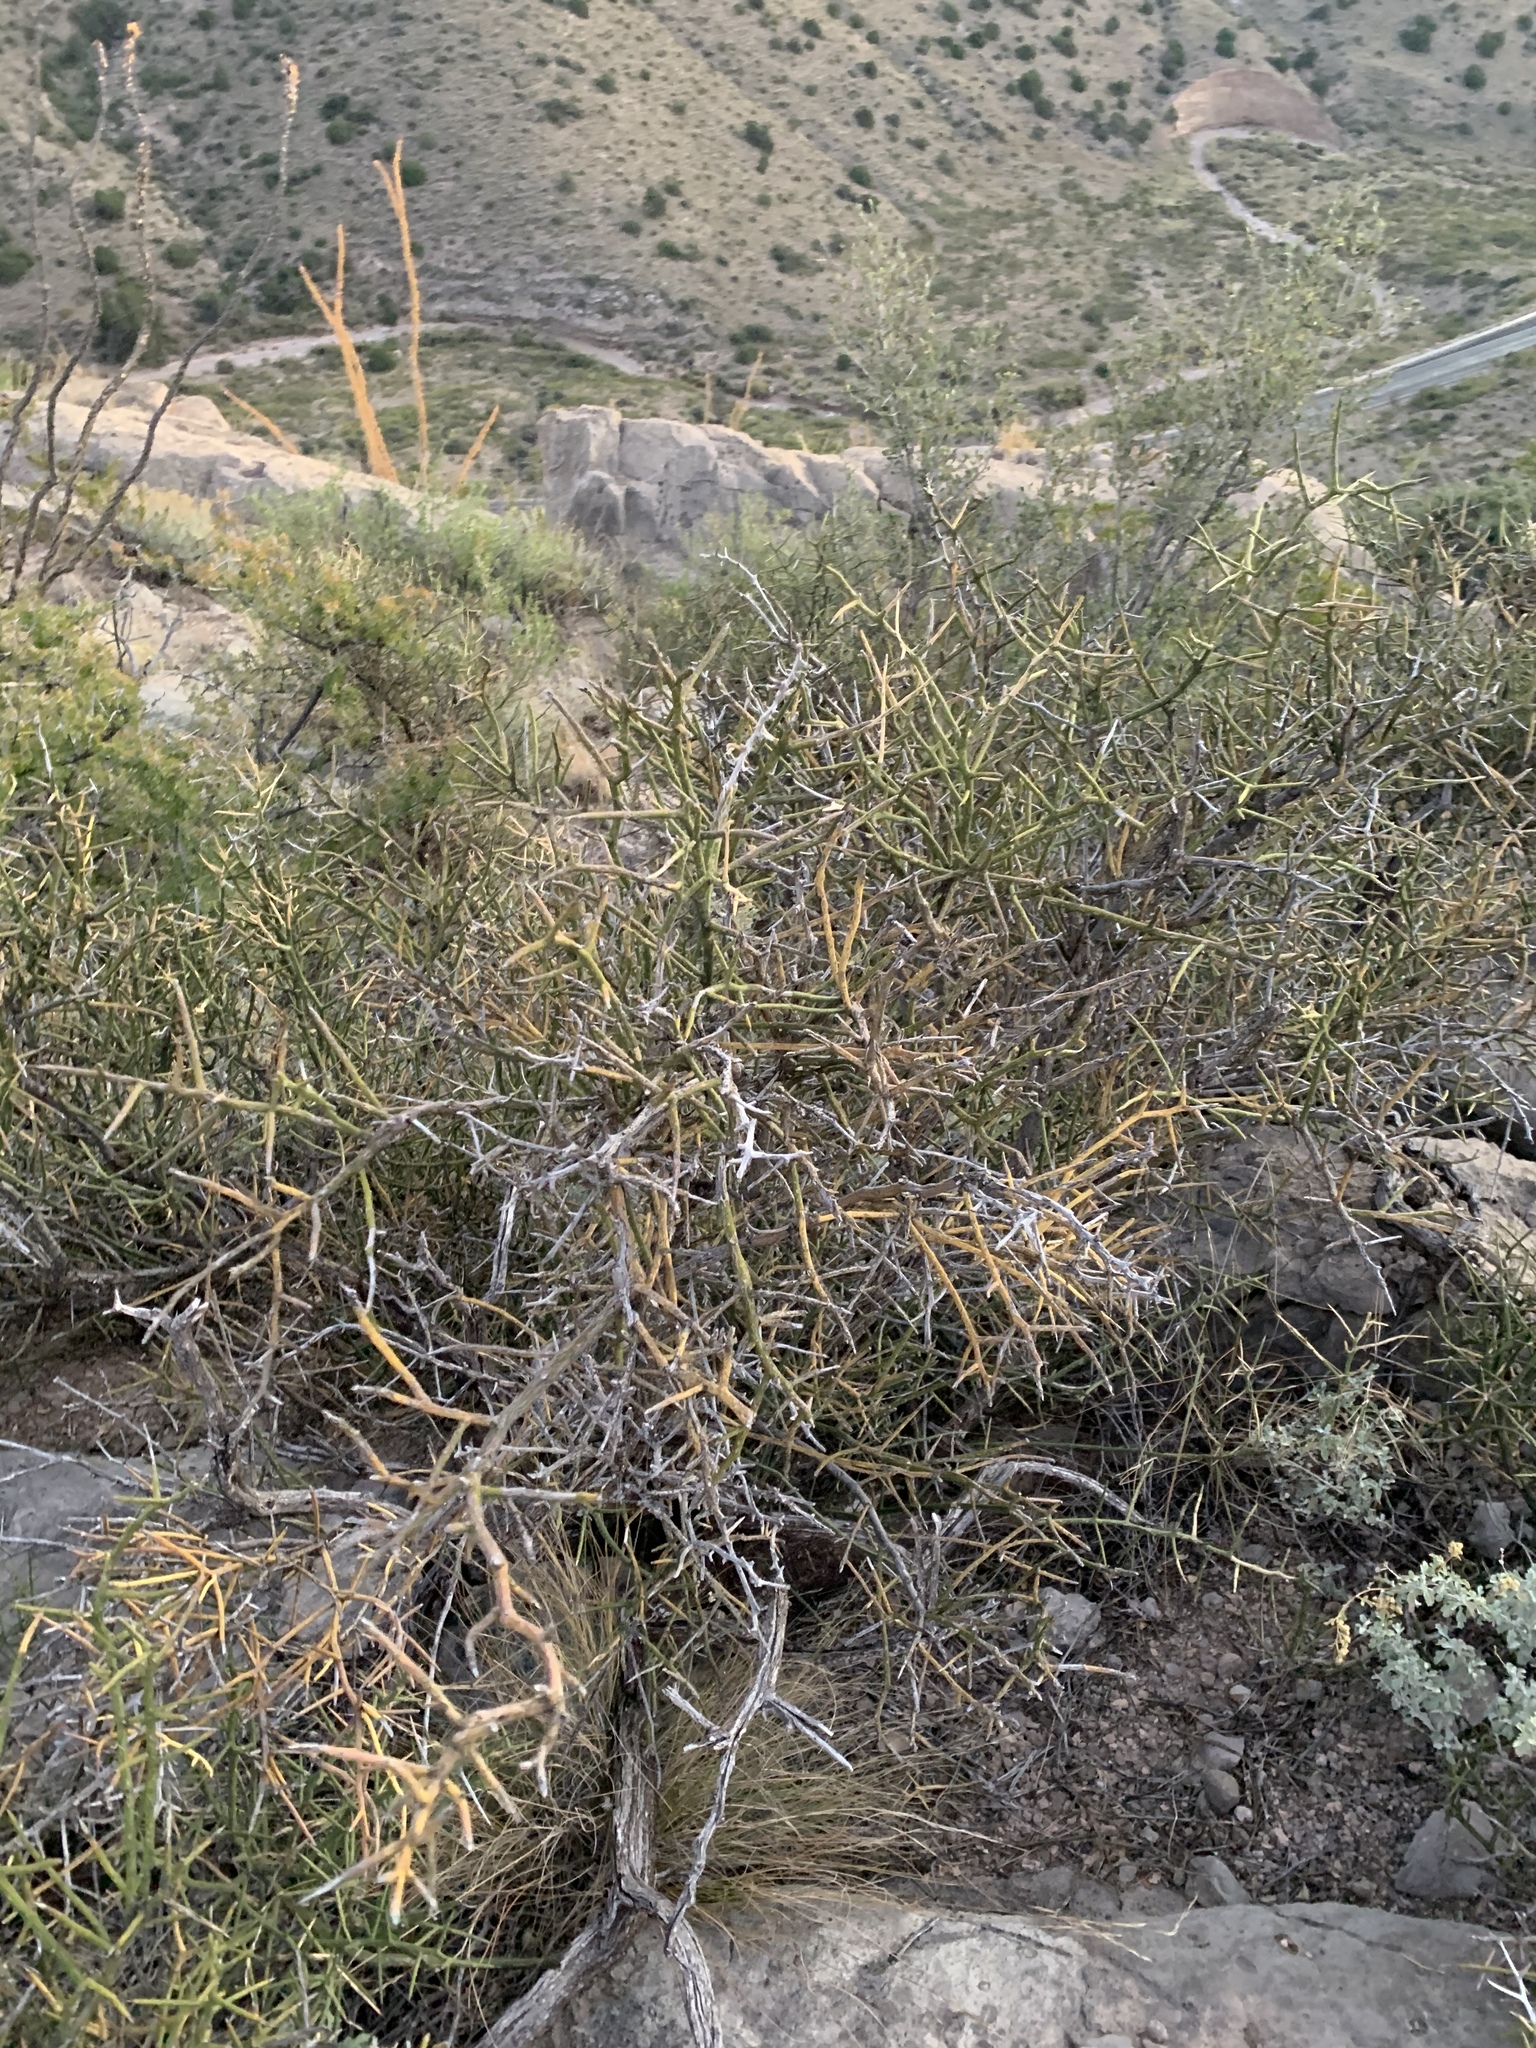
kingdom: Plantae
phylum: Tracheophyta
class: Magnoliopsida
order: Brassicales
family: Koeberliniaceae
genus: Koeberlinia
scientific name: Koeberlinia spinosa
